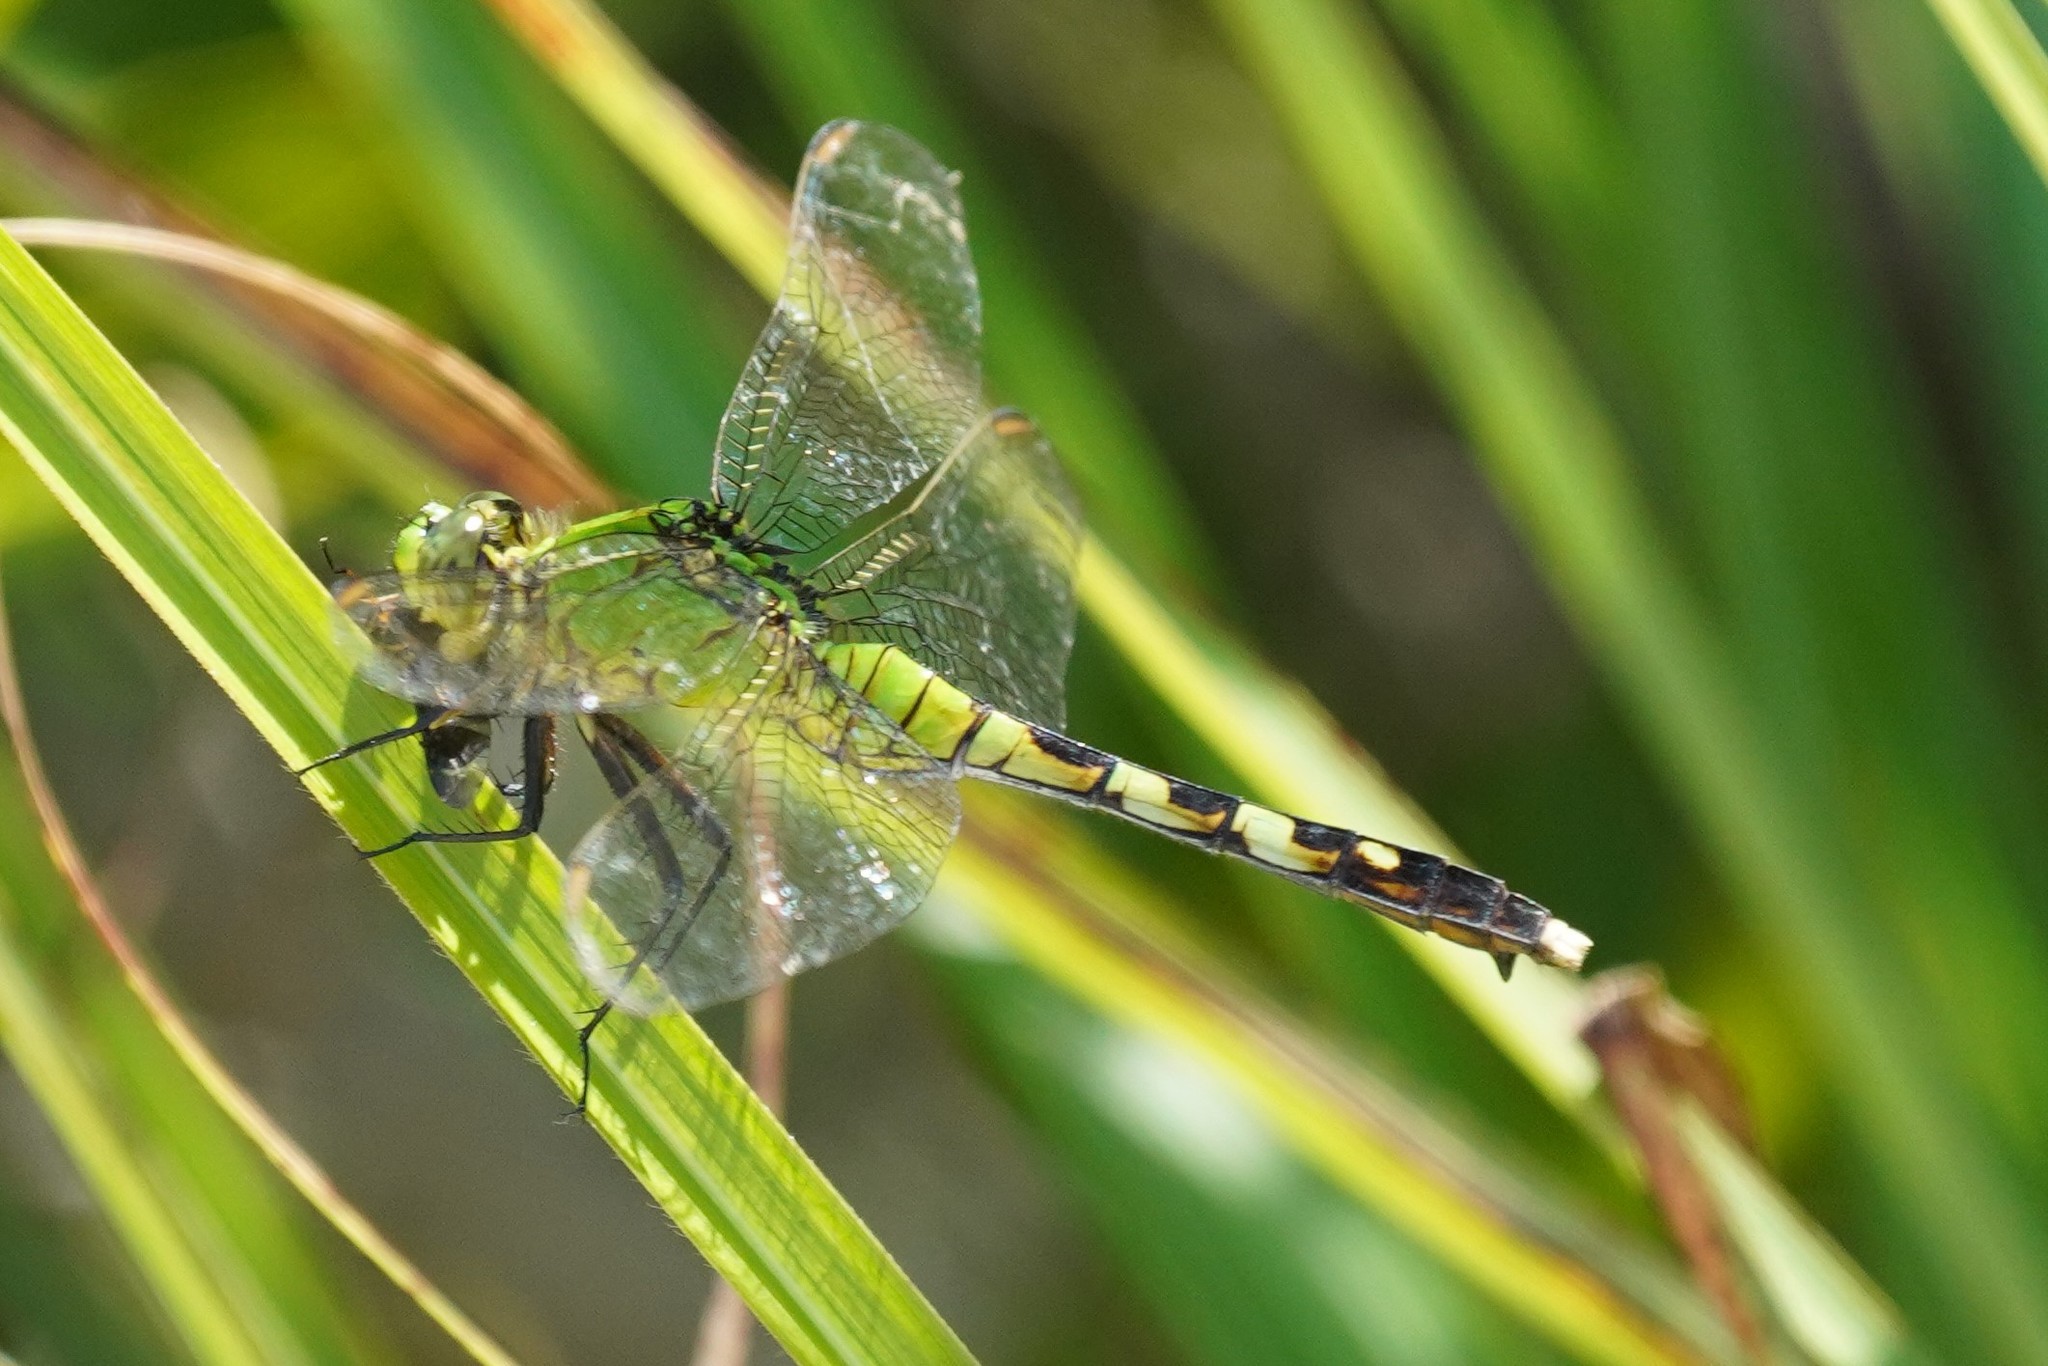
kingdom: Animalia
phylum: Arthropoda
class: Insecta
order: Odonata
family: Libellulidae
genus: Erythemis
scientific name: Erythemis simplicicollis
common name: Eastern pondhawk
